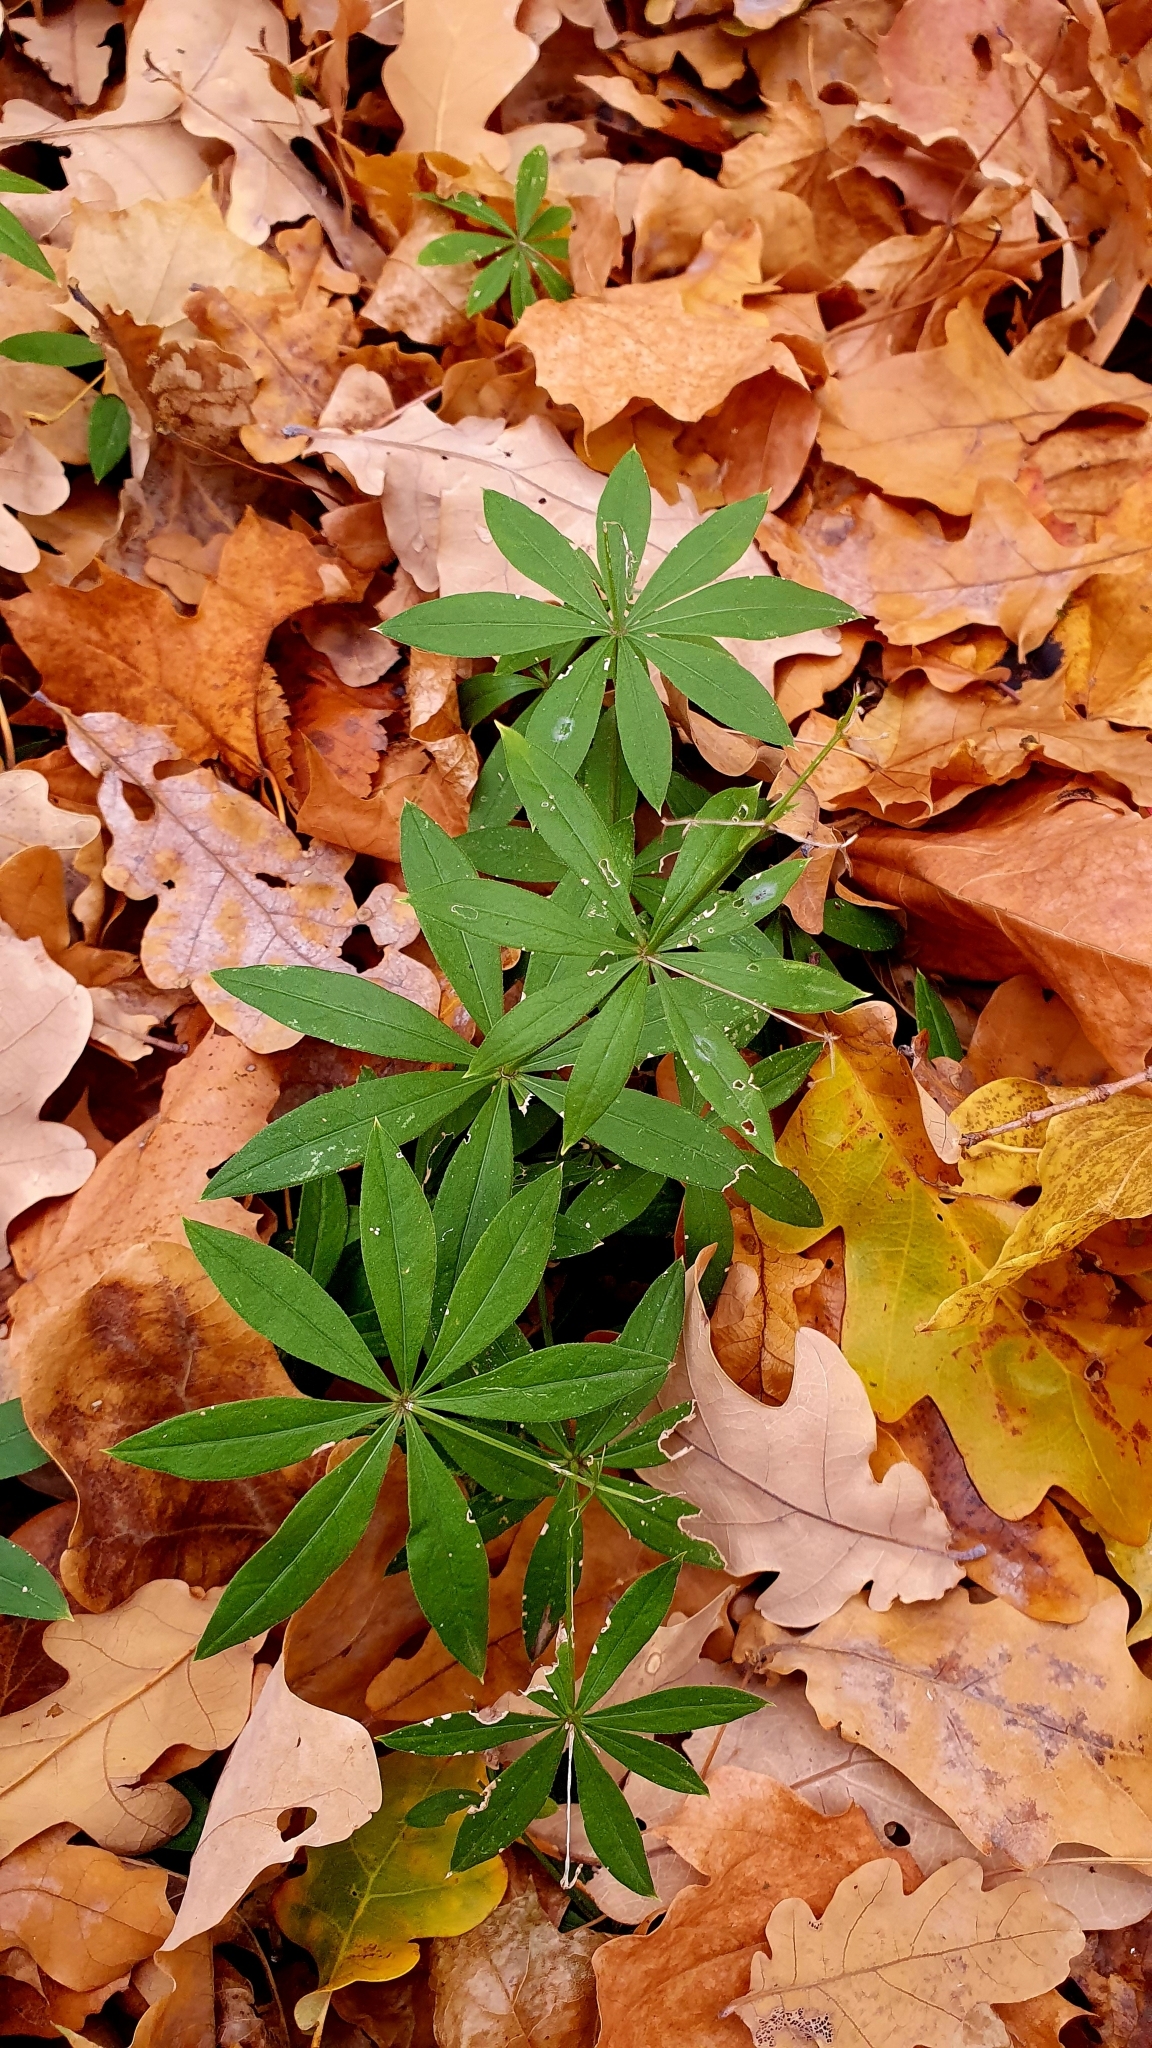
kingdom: Plantae
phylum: Tracheophyta
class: Magnoliopsida
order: Gentianales
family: Rubiaceae
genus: Galium
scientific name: Galium odoratum
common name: Sweet woodruff
